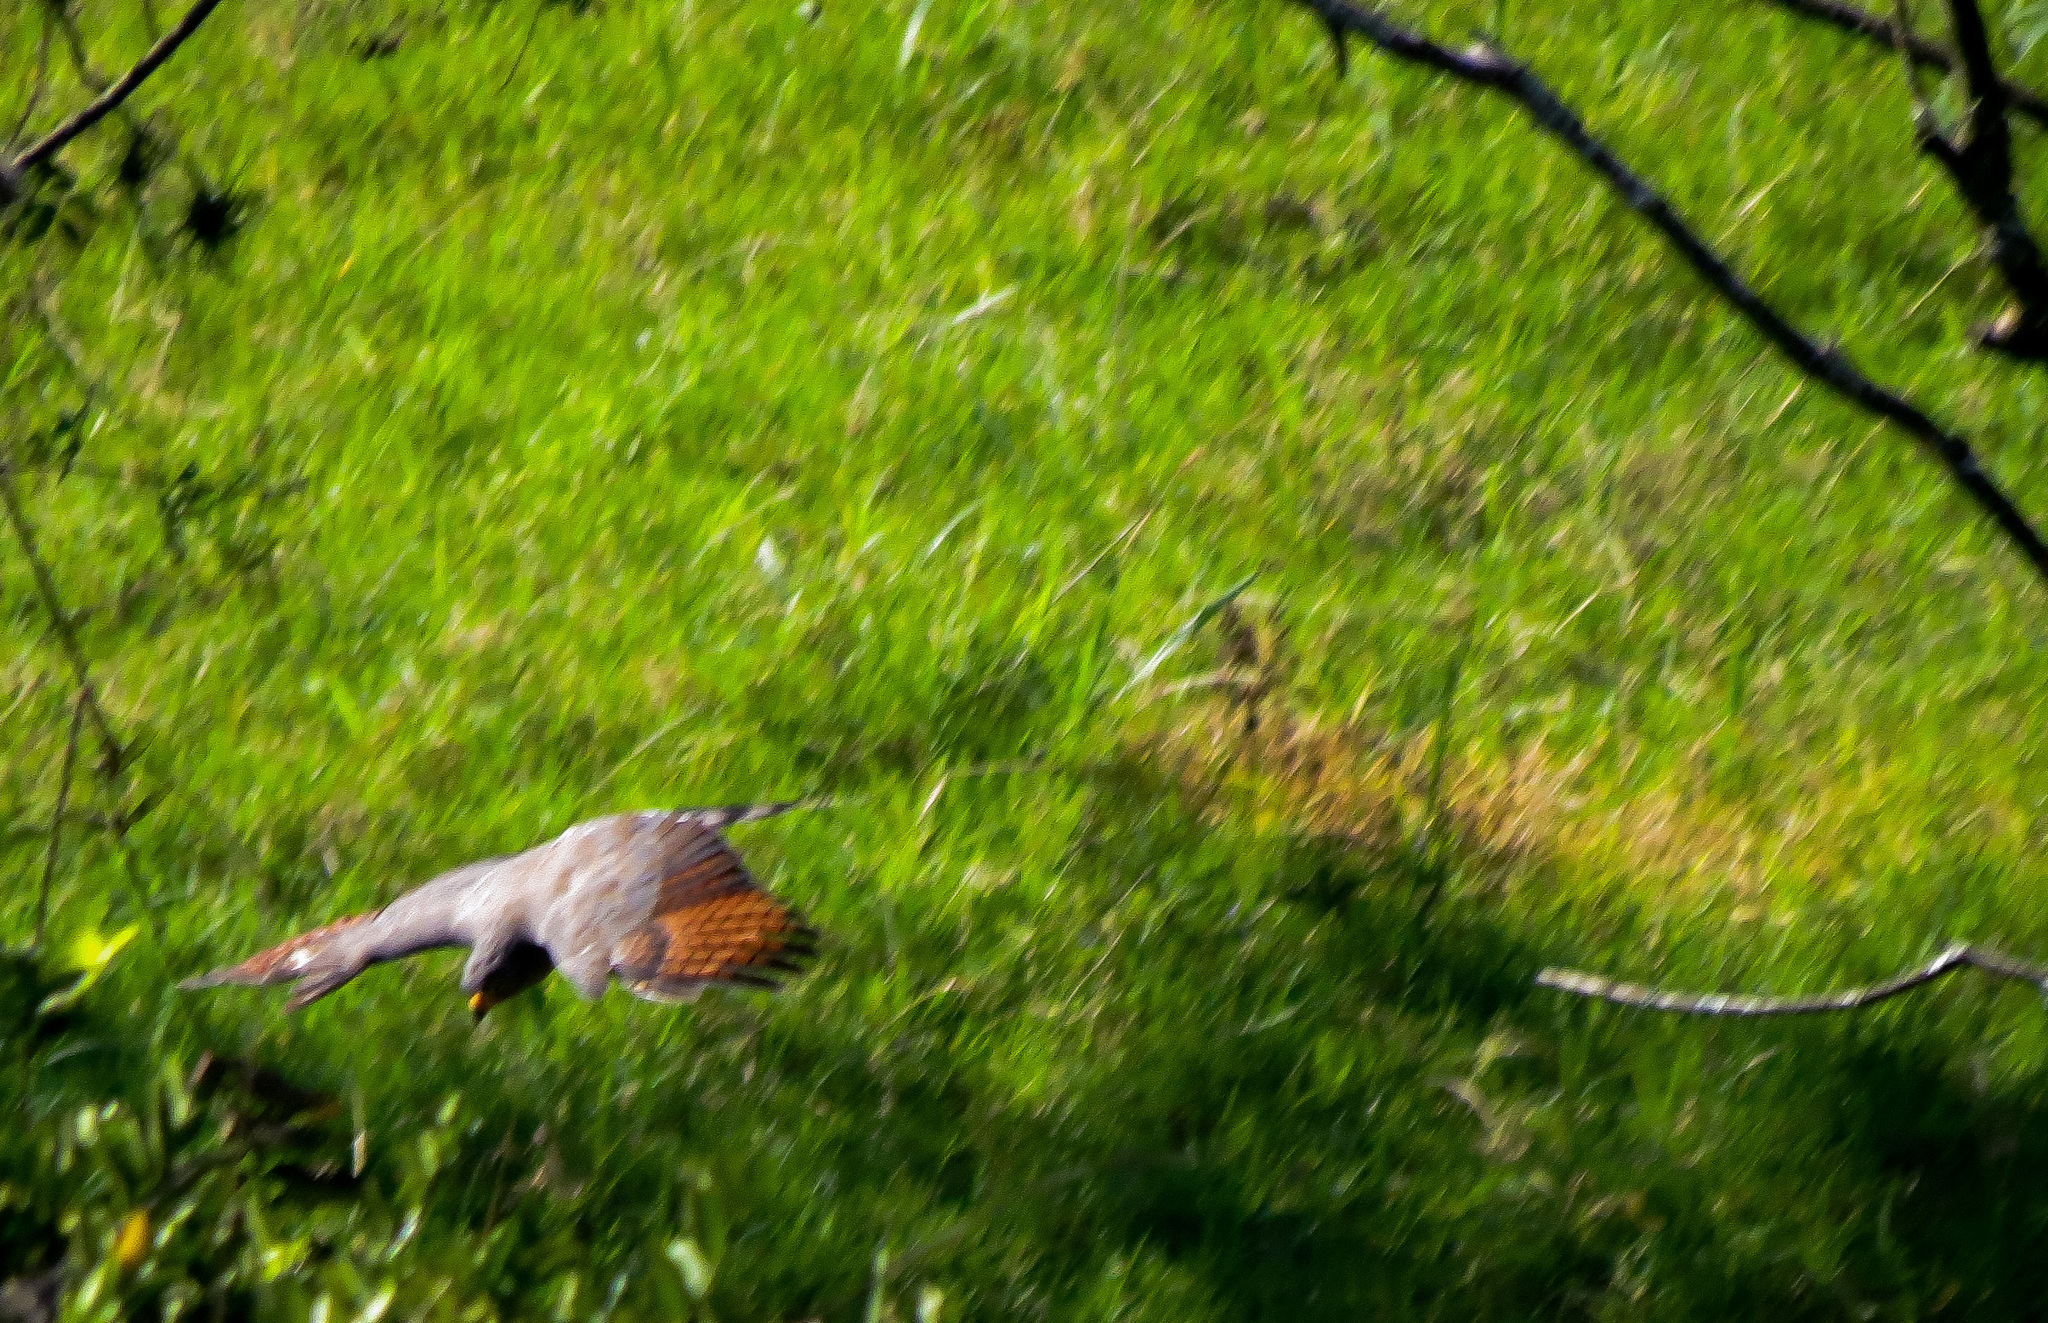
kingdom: Animalia
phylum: Chordata
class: Aves
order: Accipitriformes
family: Accipitridae
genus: Rupornis
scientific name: Rupornis magnirostris
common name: Roadside hawk
